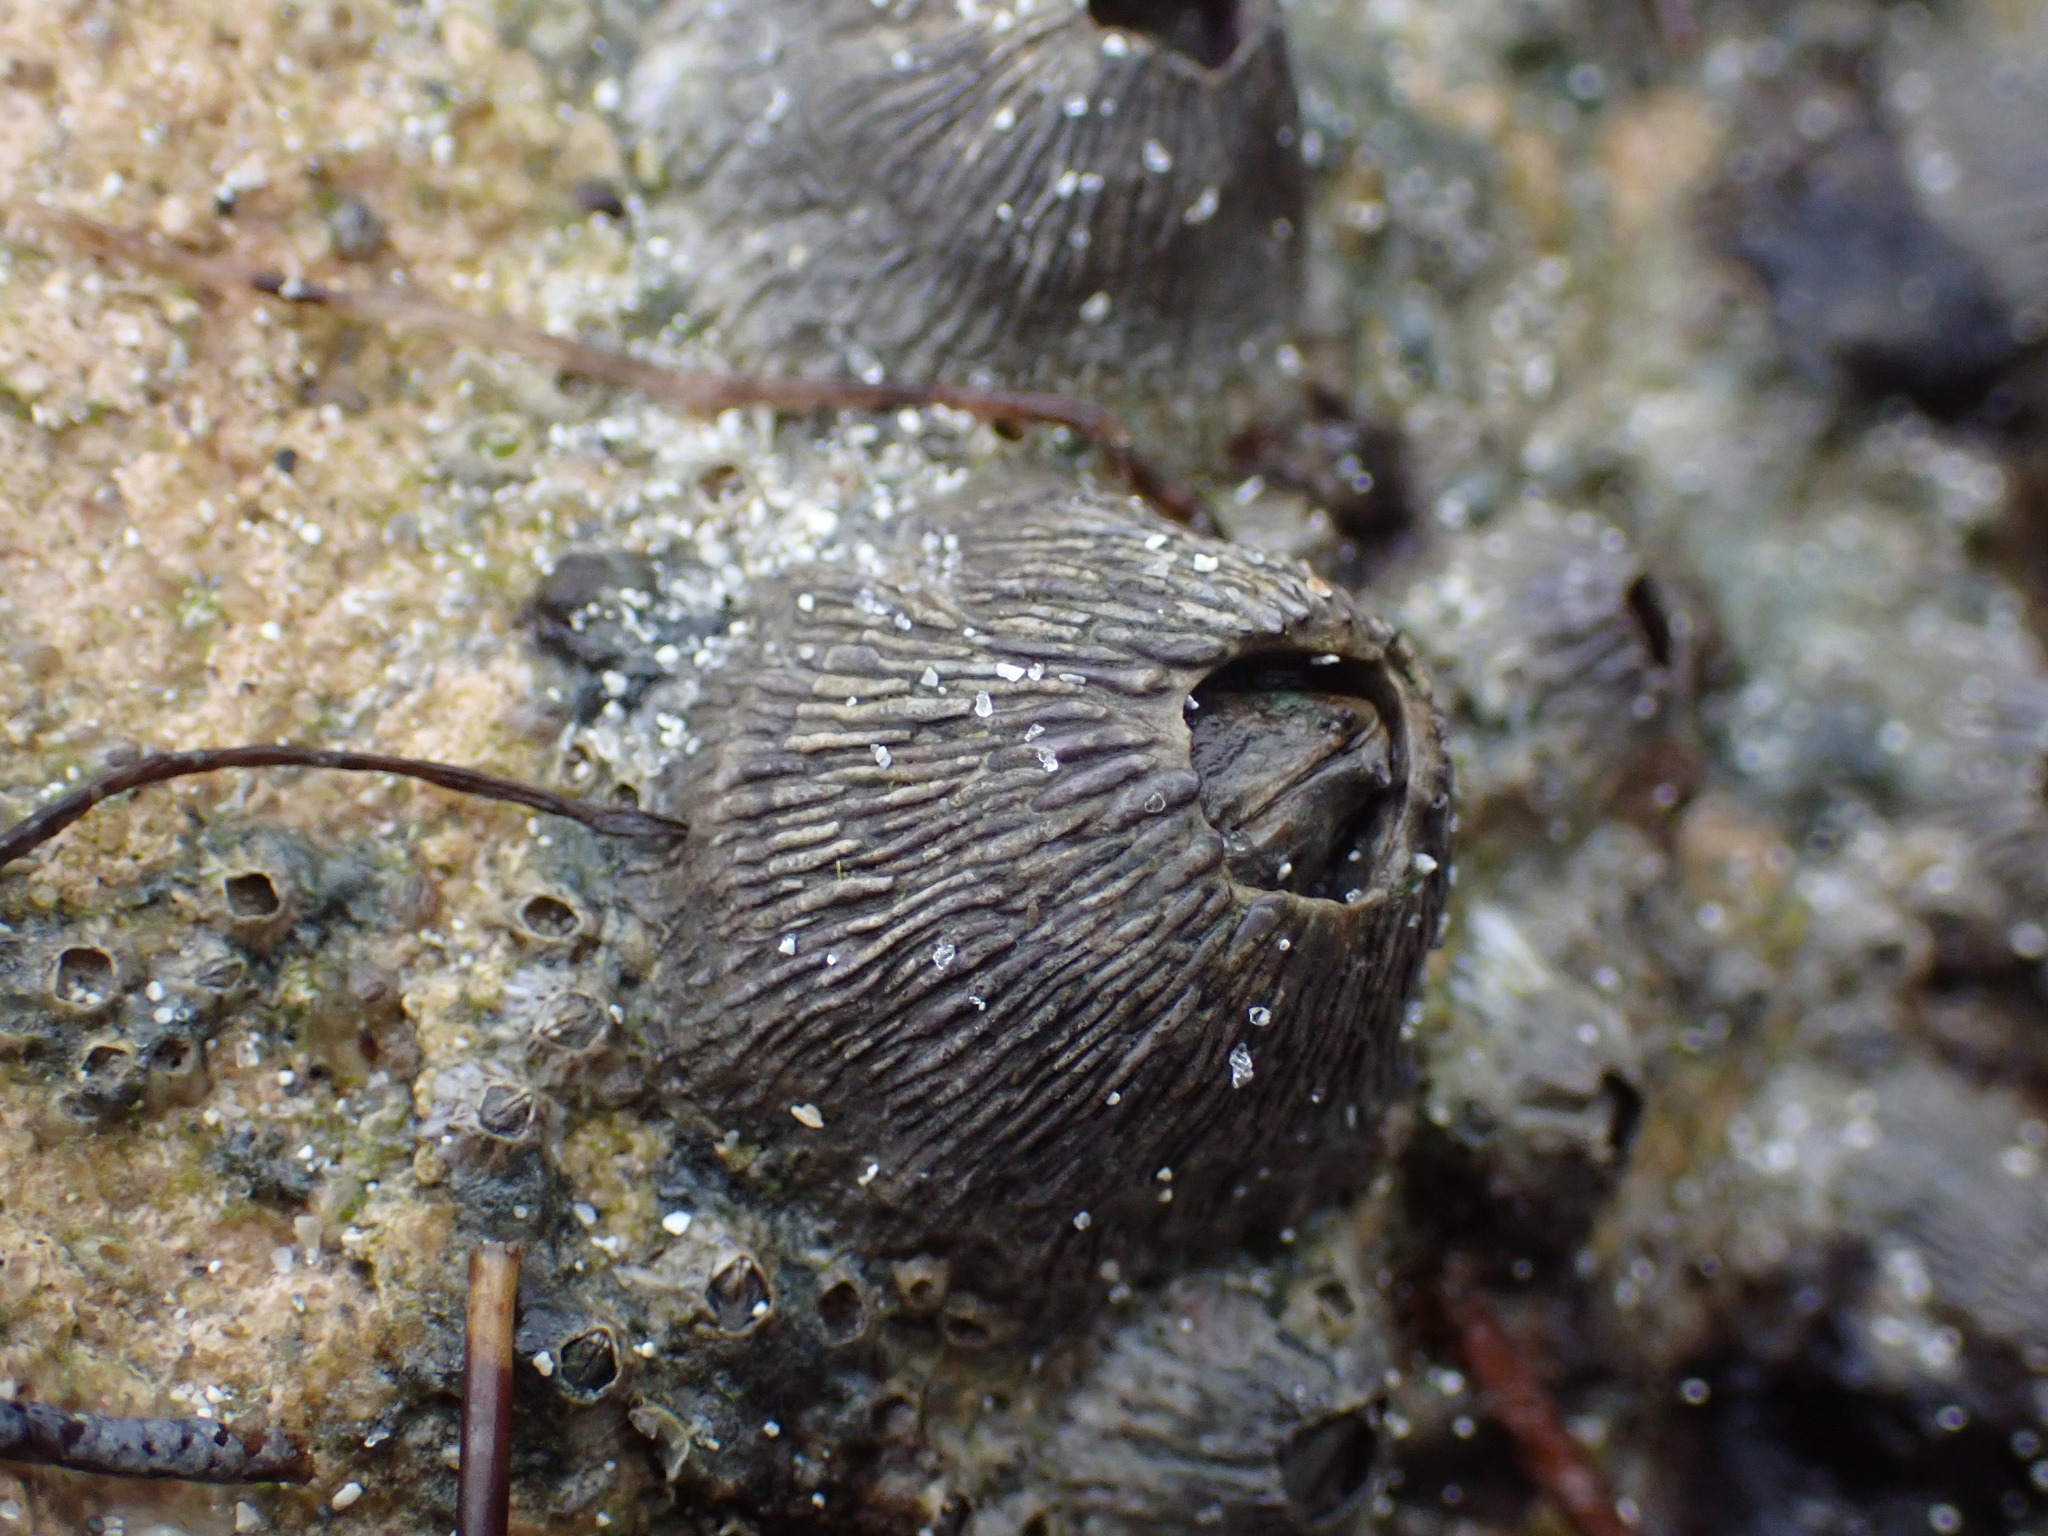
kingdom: Animalia
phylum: Arthropoda
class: Maxillopoda
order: Sessilia
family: Tetraclitidae
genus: Tetraclita
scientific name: Tetraclita stalactifera
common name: Ribbed barnacle
